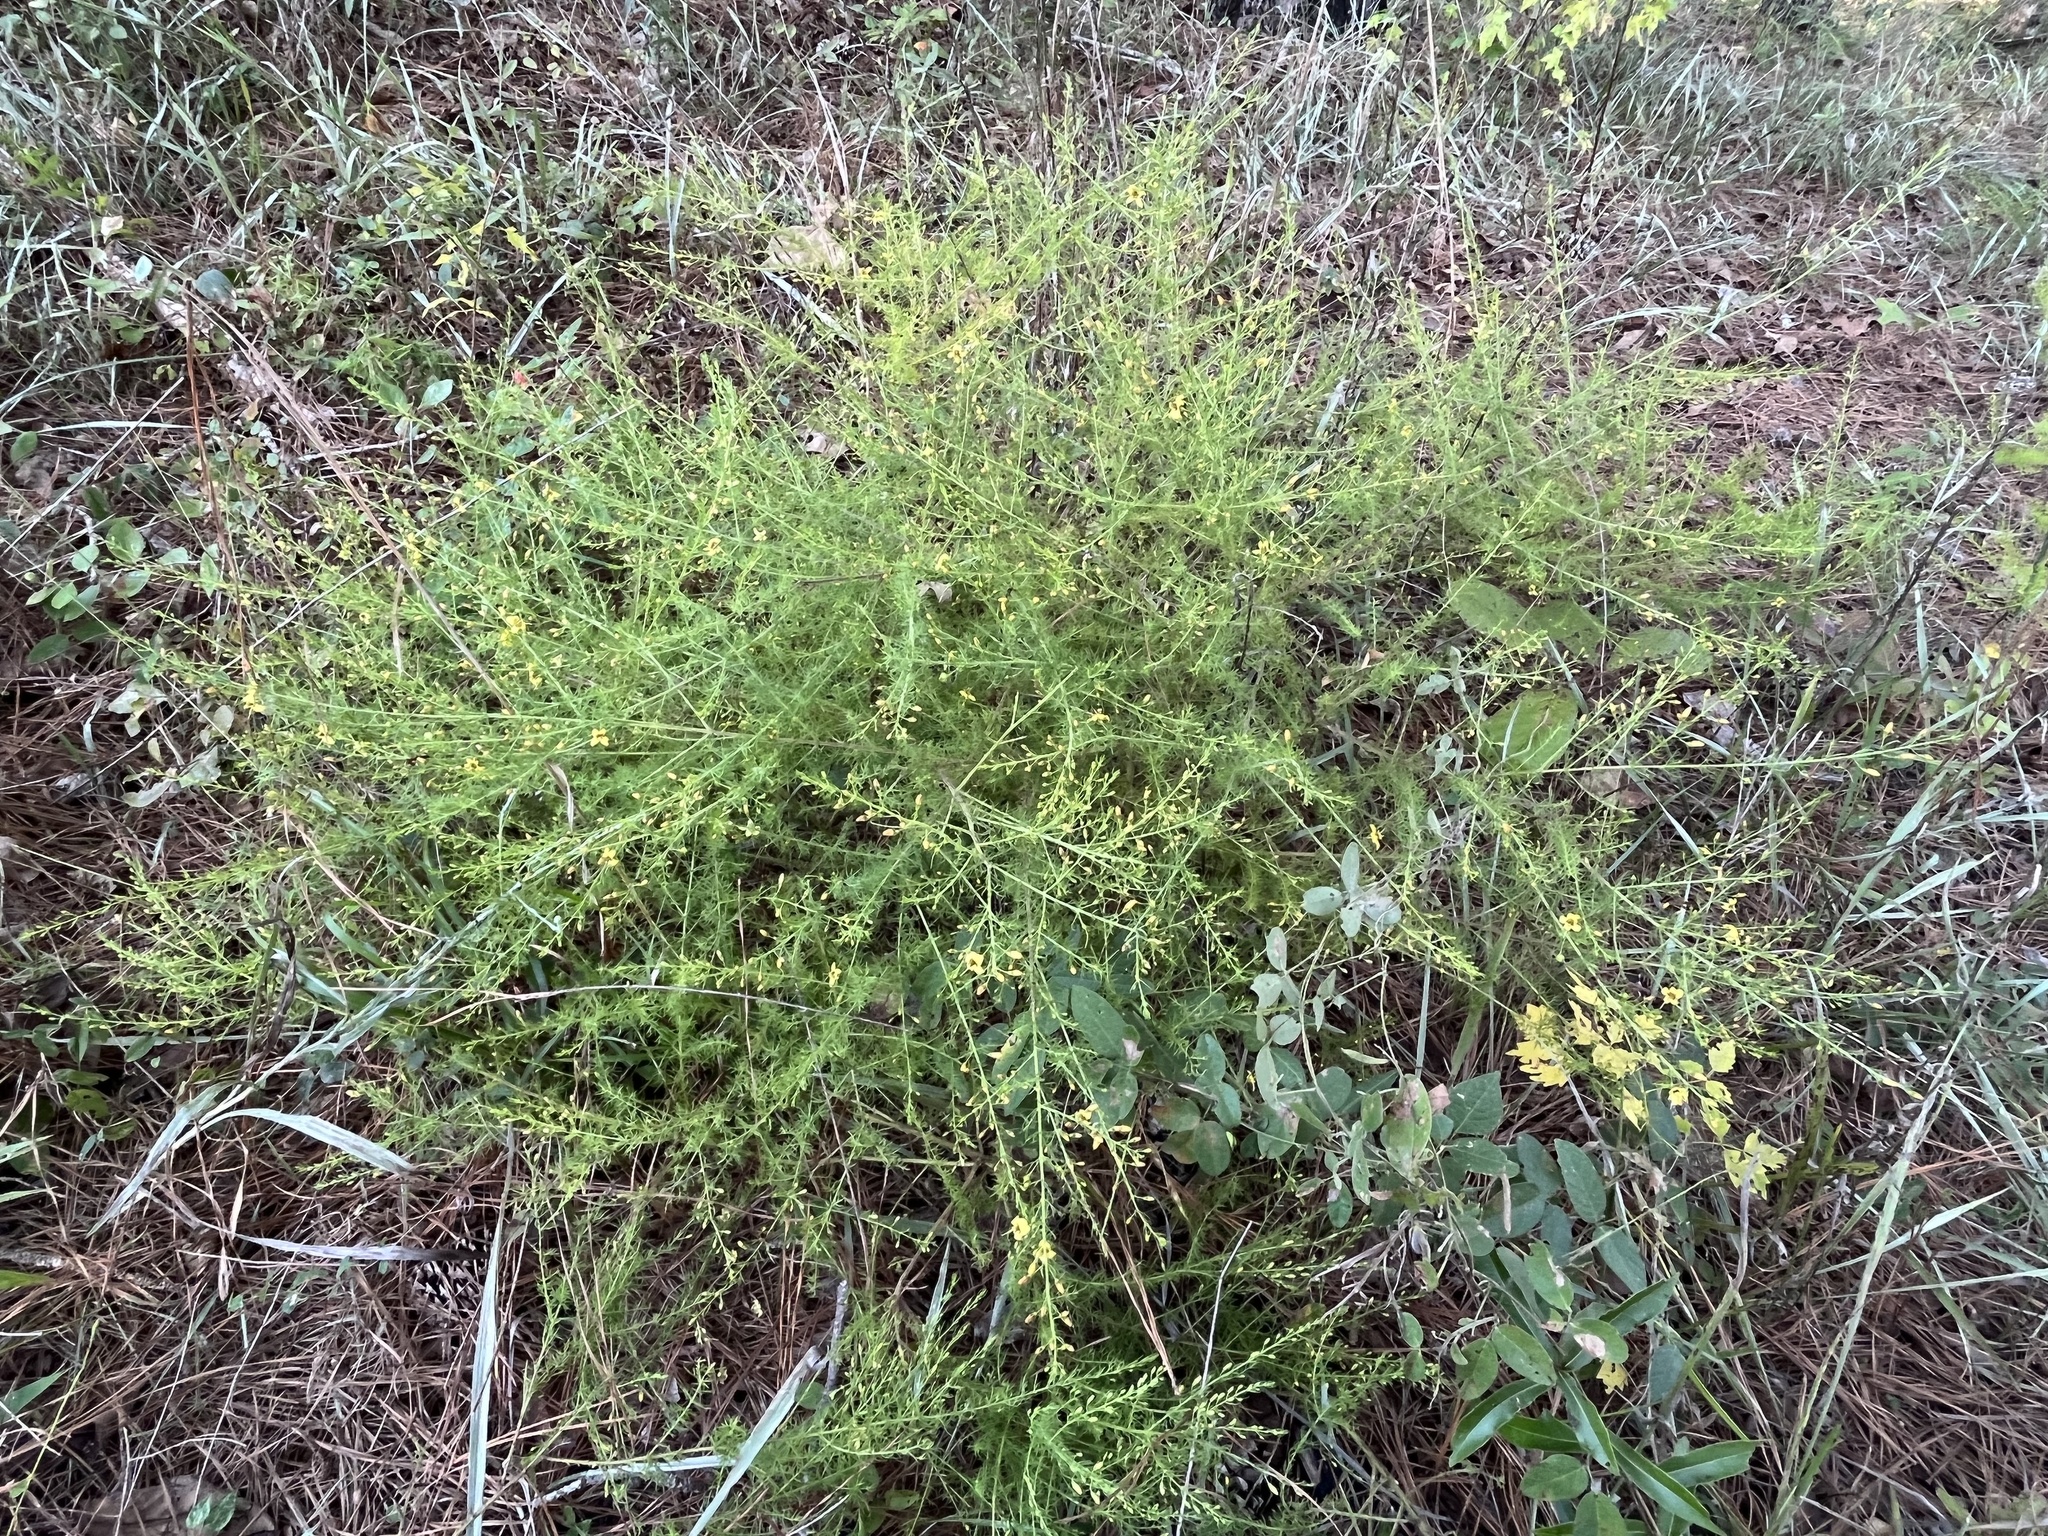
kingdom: Plantae
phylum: Tracheophyta
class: Magnoliopsida
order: Lamiales
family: Orobanchaceae
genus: Seymeria
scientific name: Seymeria cassioides
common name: Yaupon black-senna
